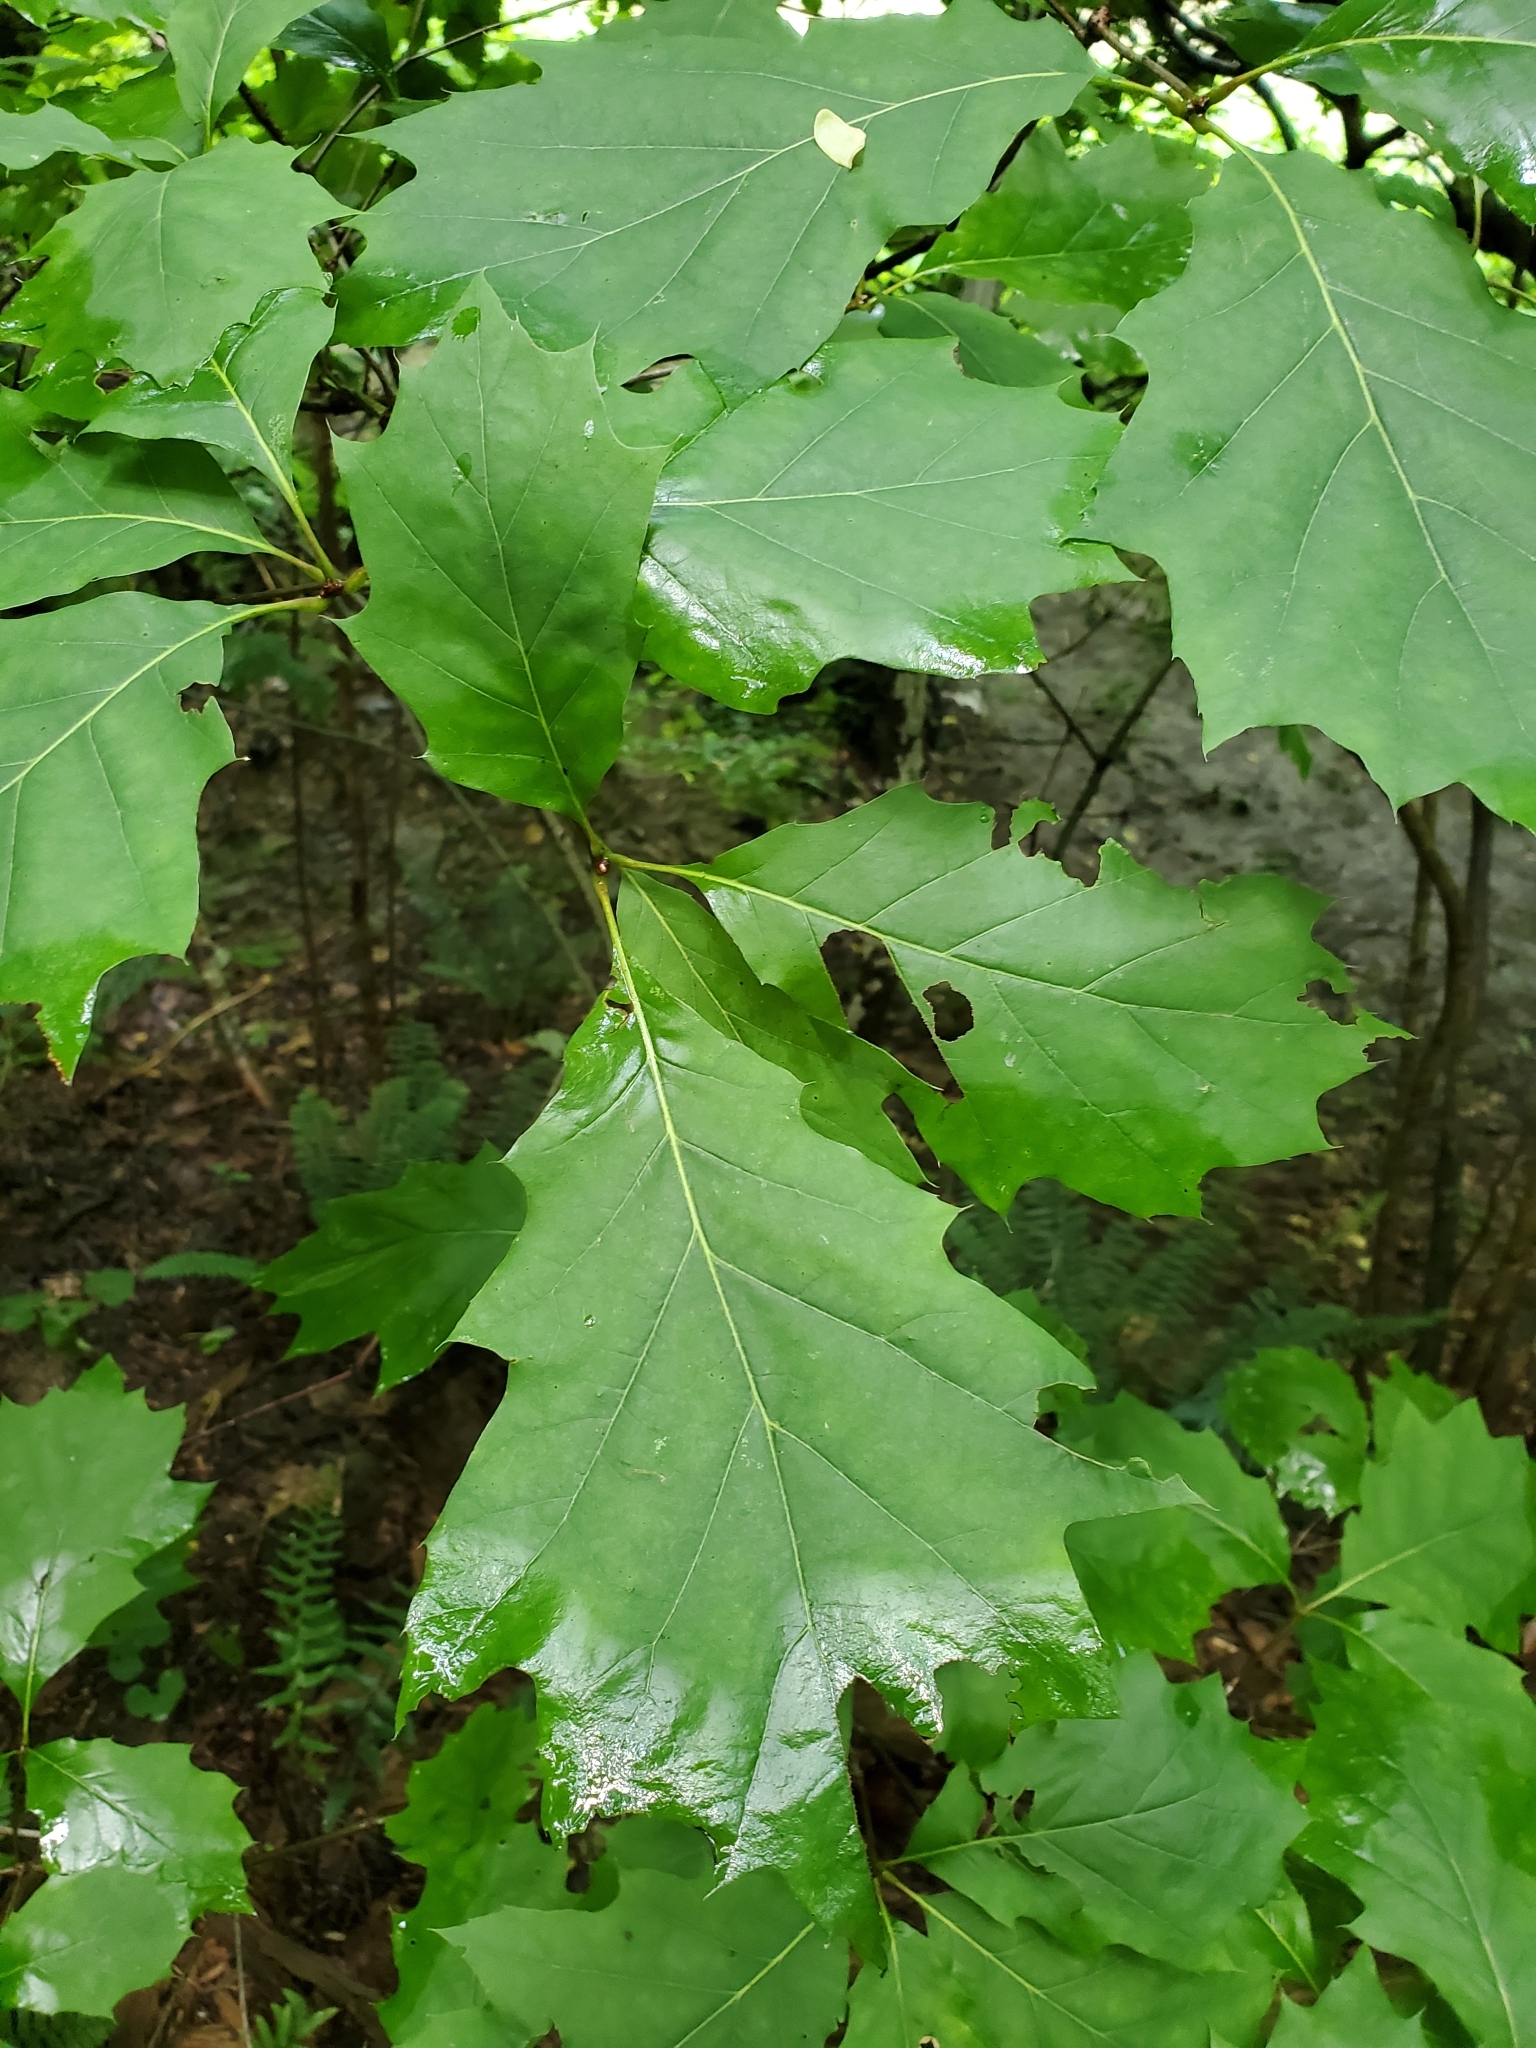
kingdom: Plantae
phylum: Tracheophyta
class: Magnoliopsida
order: Fagales
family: Fagaceae
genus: Quercus
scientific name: Quercus rubra
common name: Red oak
